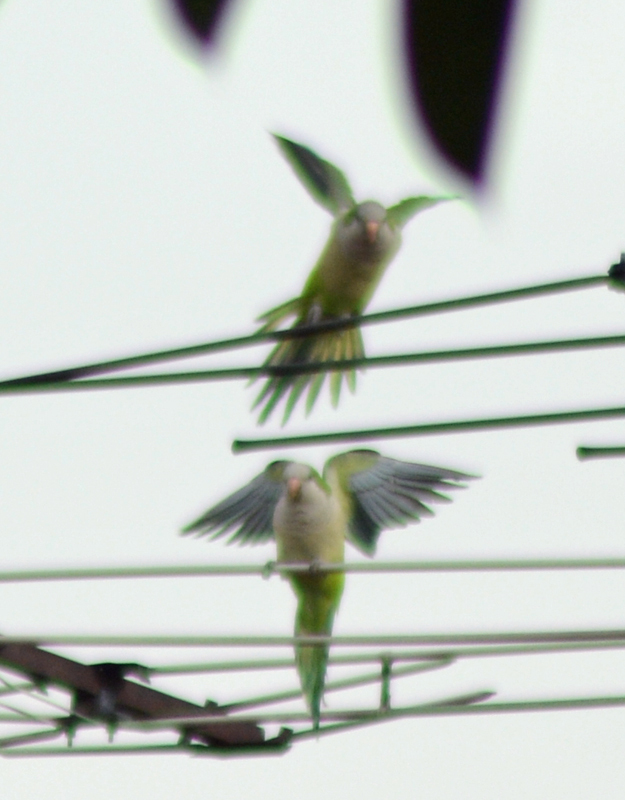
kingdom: Animalia
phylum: Chordata
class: Aves
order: Psittaciformes
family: Psittacidae
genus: Myiopsitta
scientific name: Myiopsitta monachus
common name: Monk parakeet
